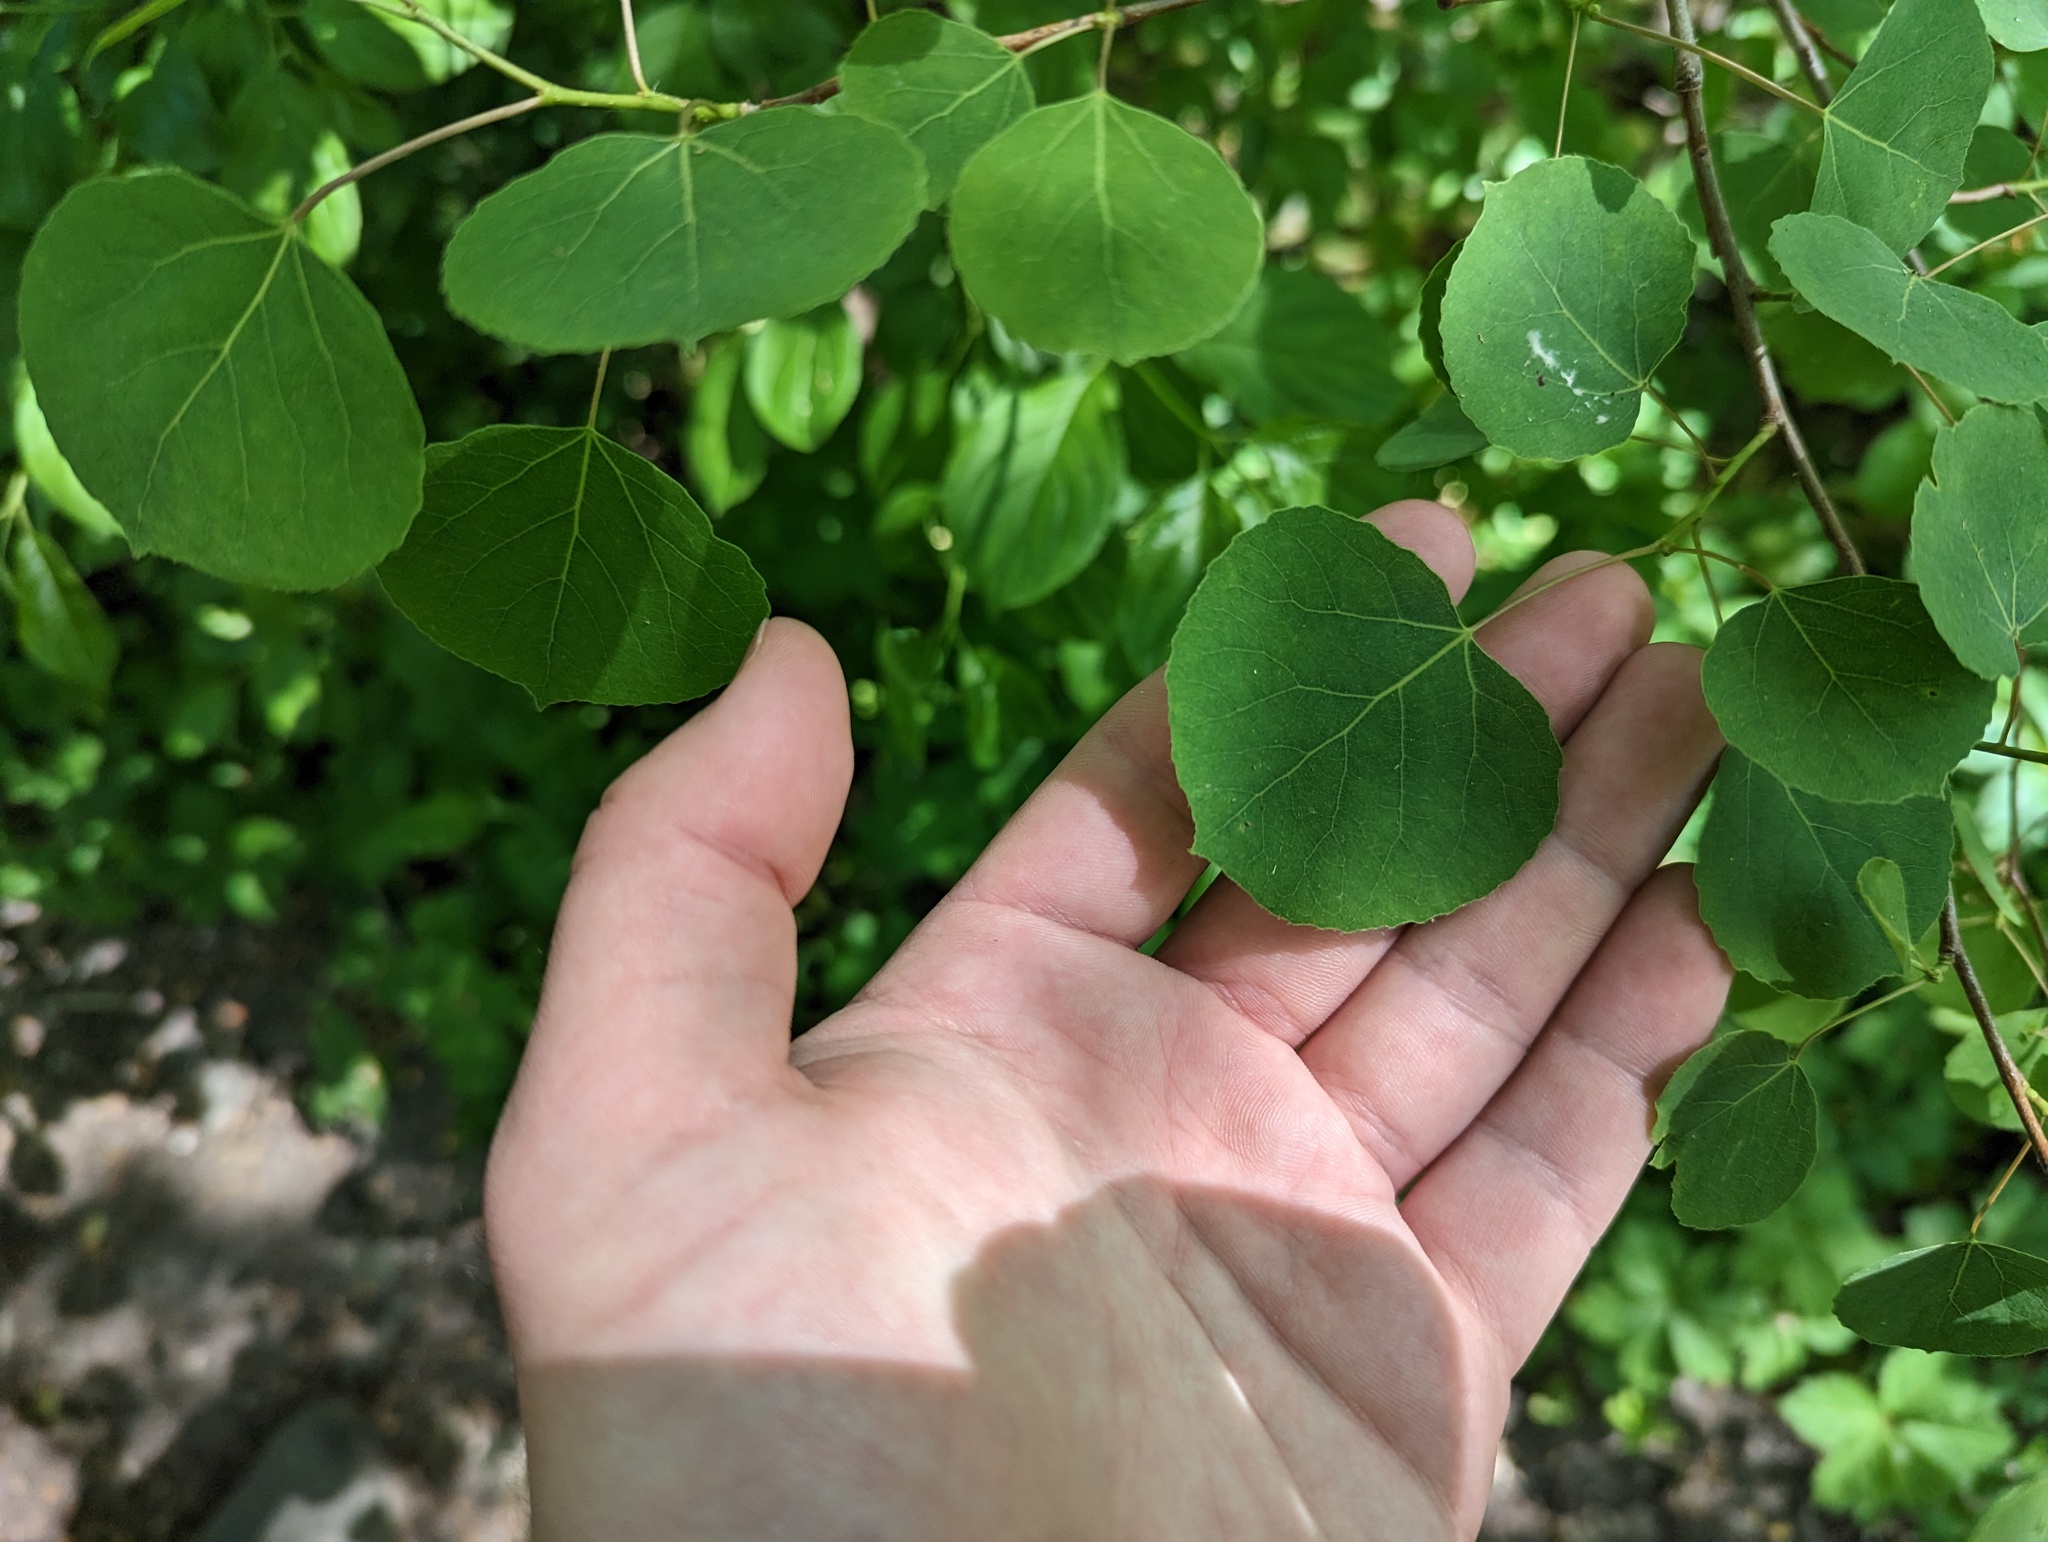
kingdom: Plantae
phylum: Tracheophyta
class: Magnoliopsida
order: Malpighiales
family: Salicaceae
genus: Populus
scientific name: Populus tremuloides
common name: Quaking aspen
